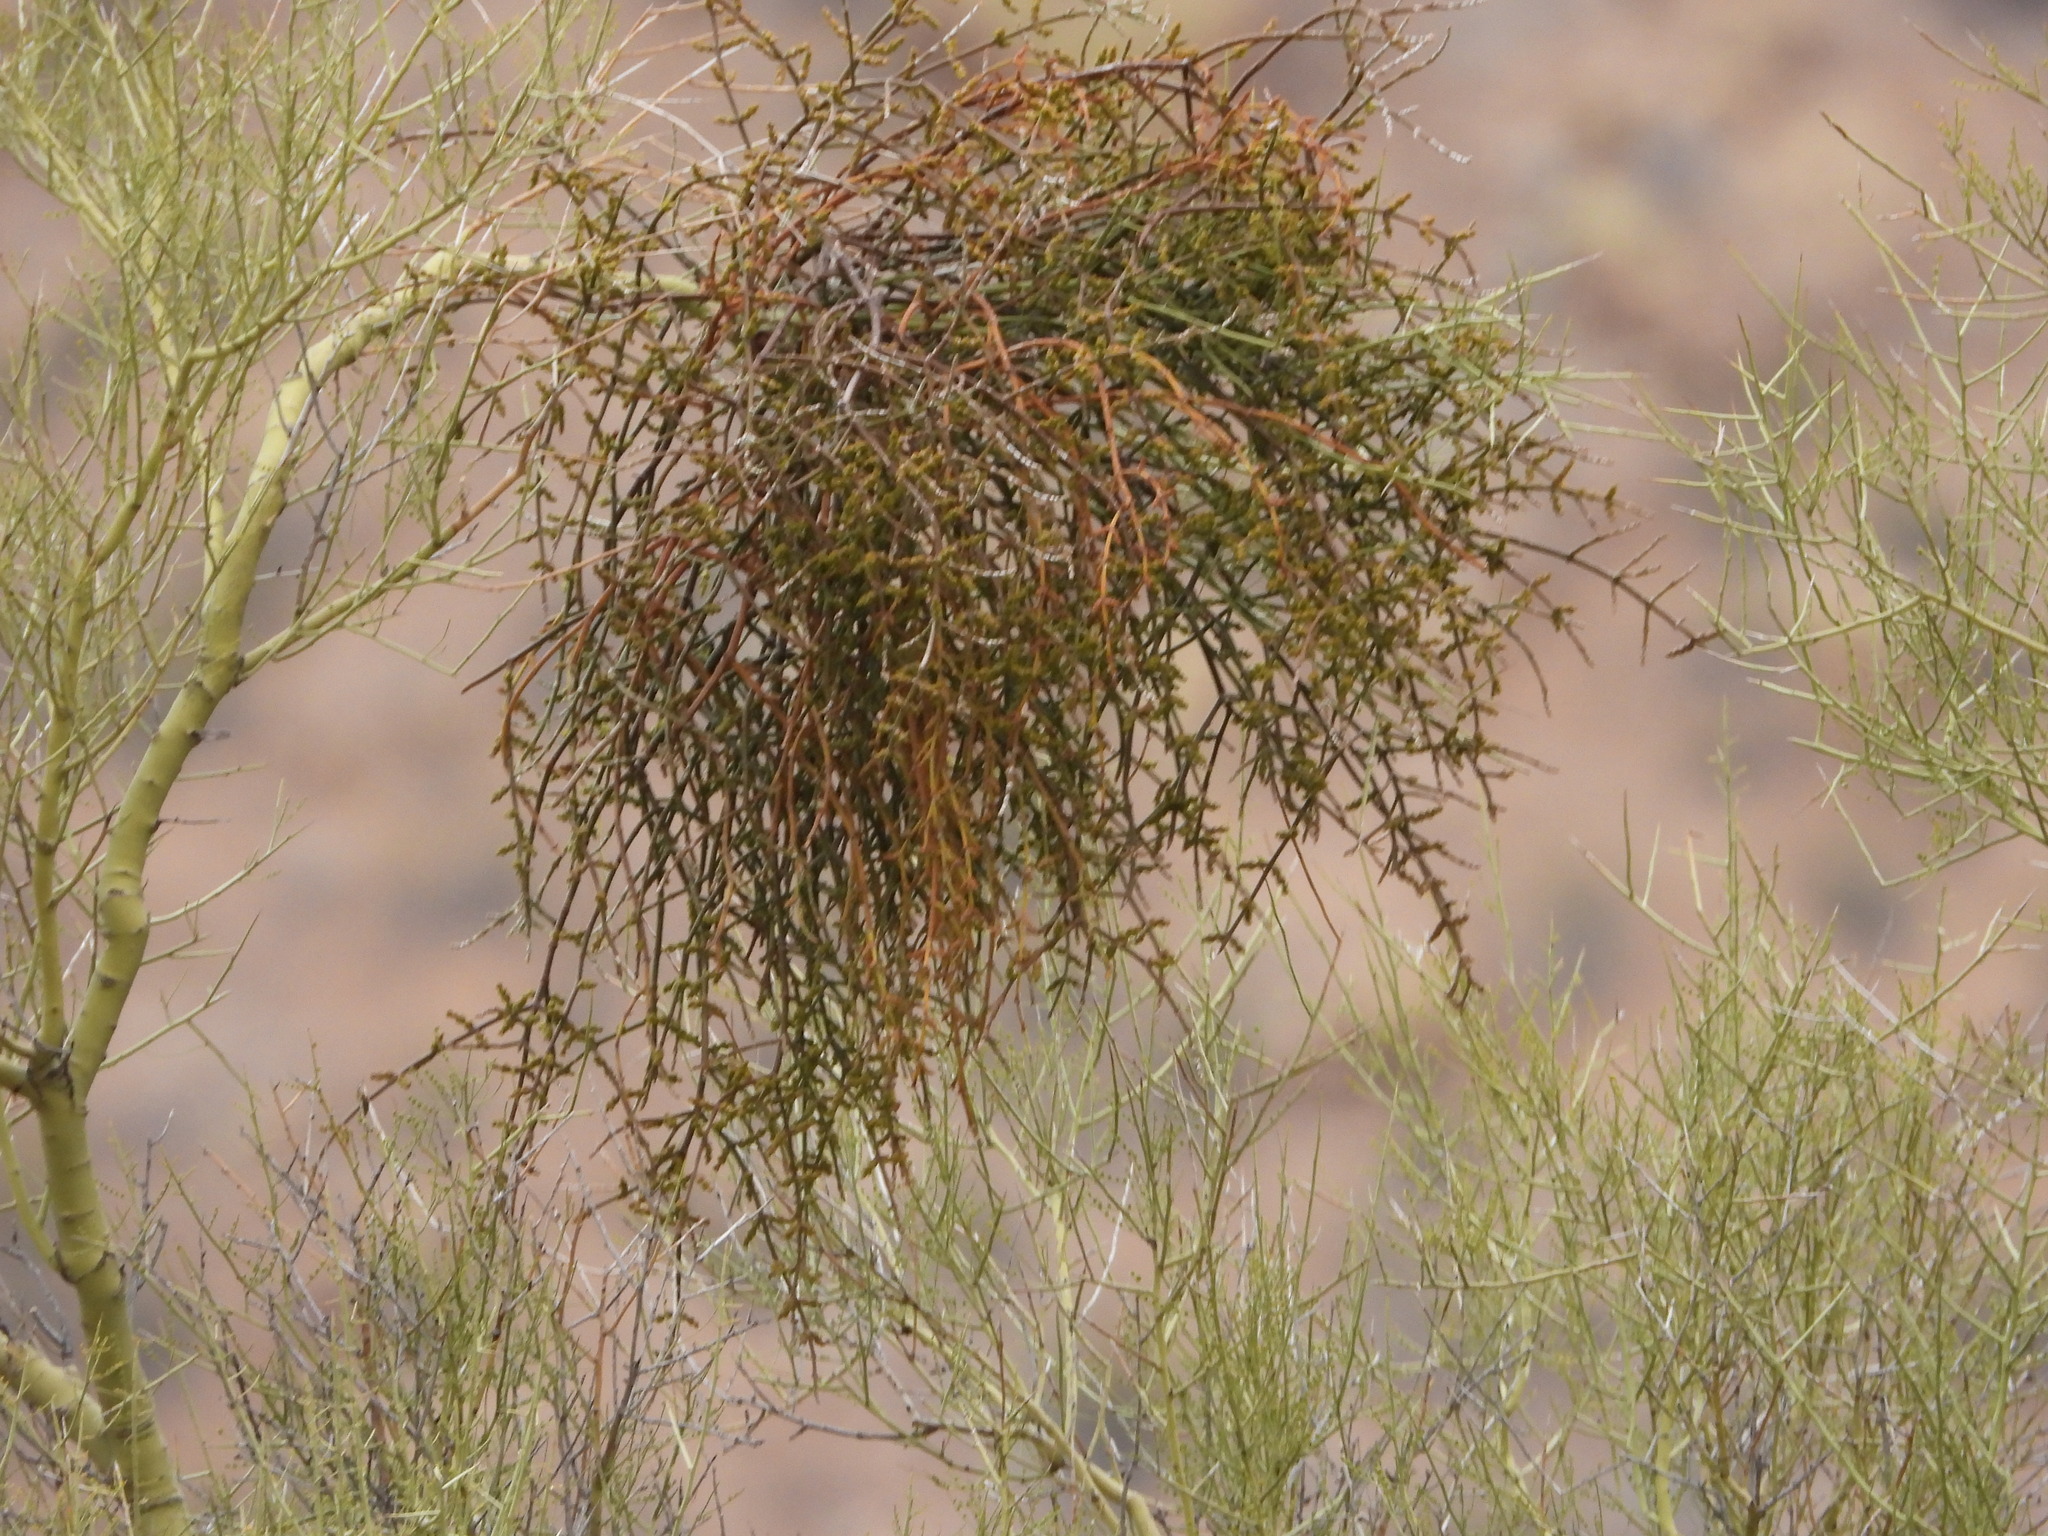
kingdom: Plantae
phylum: Tracheophyta
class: Magnoliopsida
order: Santalales
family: Viscaceae
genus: Phoradendron
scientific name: Phoradendron californicum
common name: Acacia mistletoe
